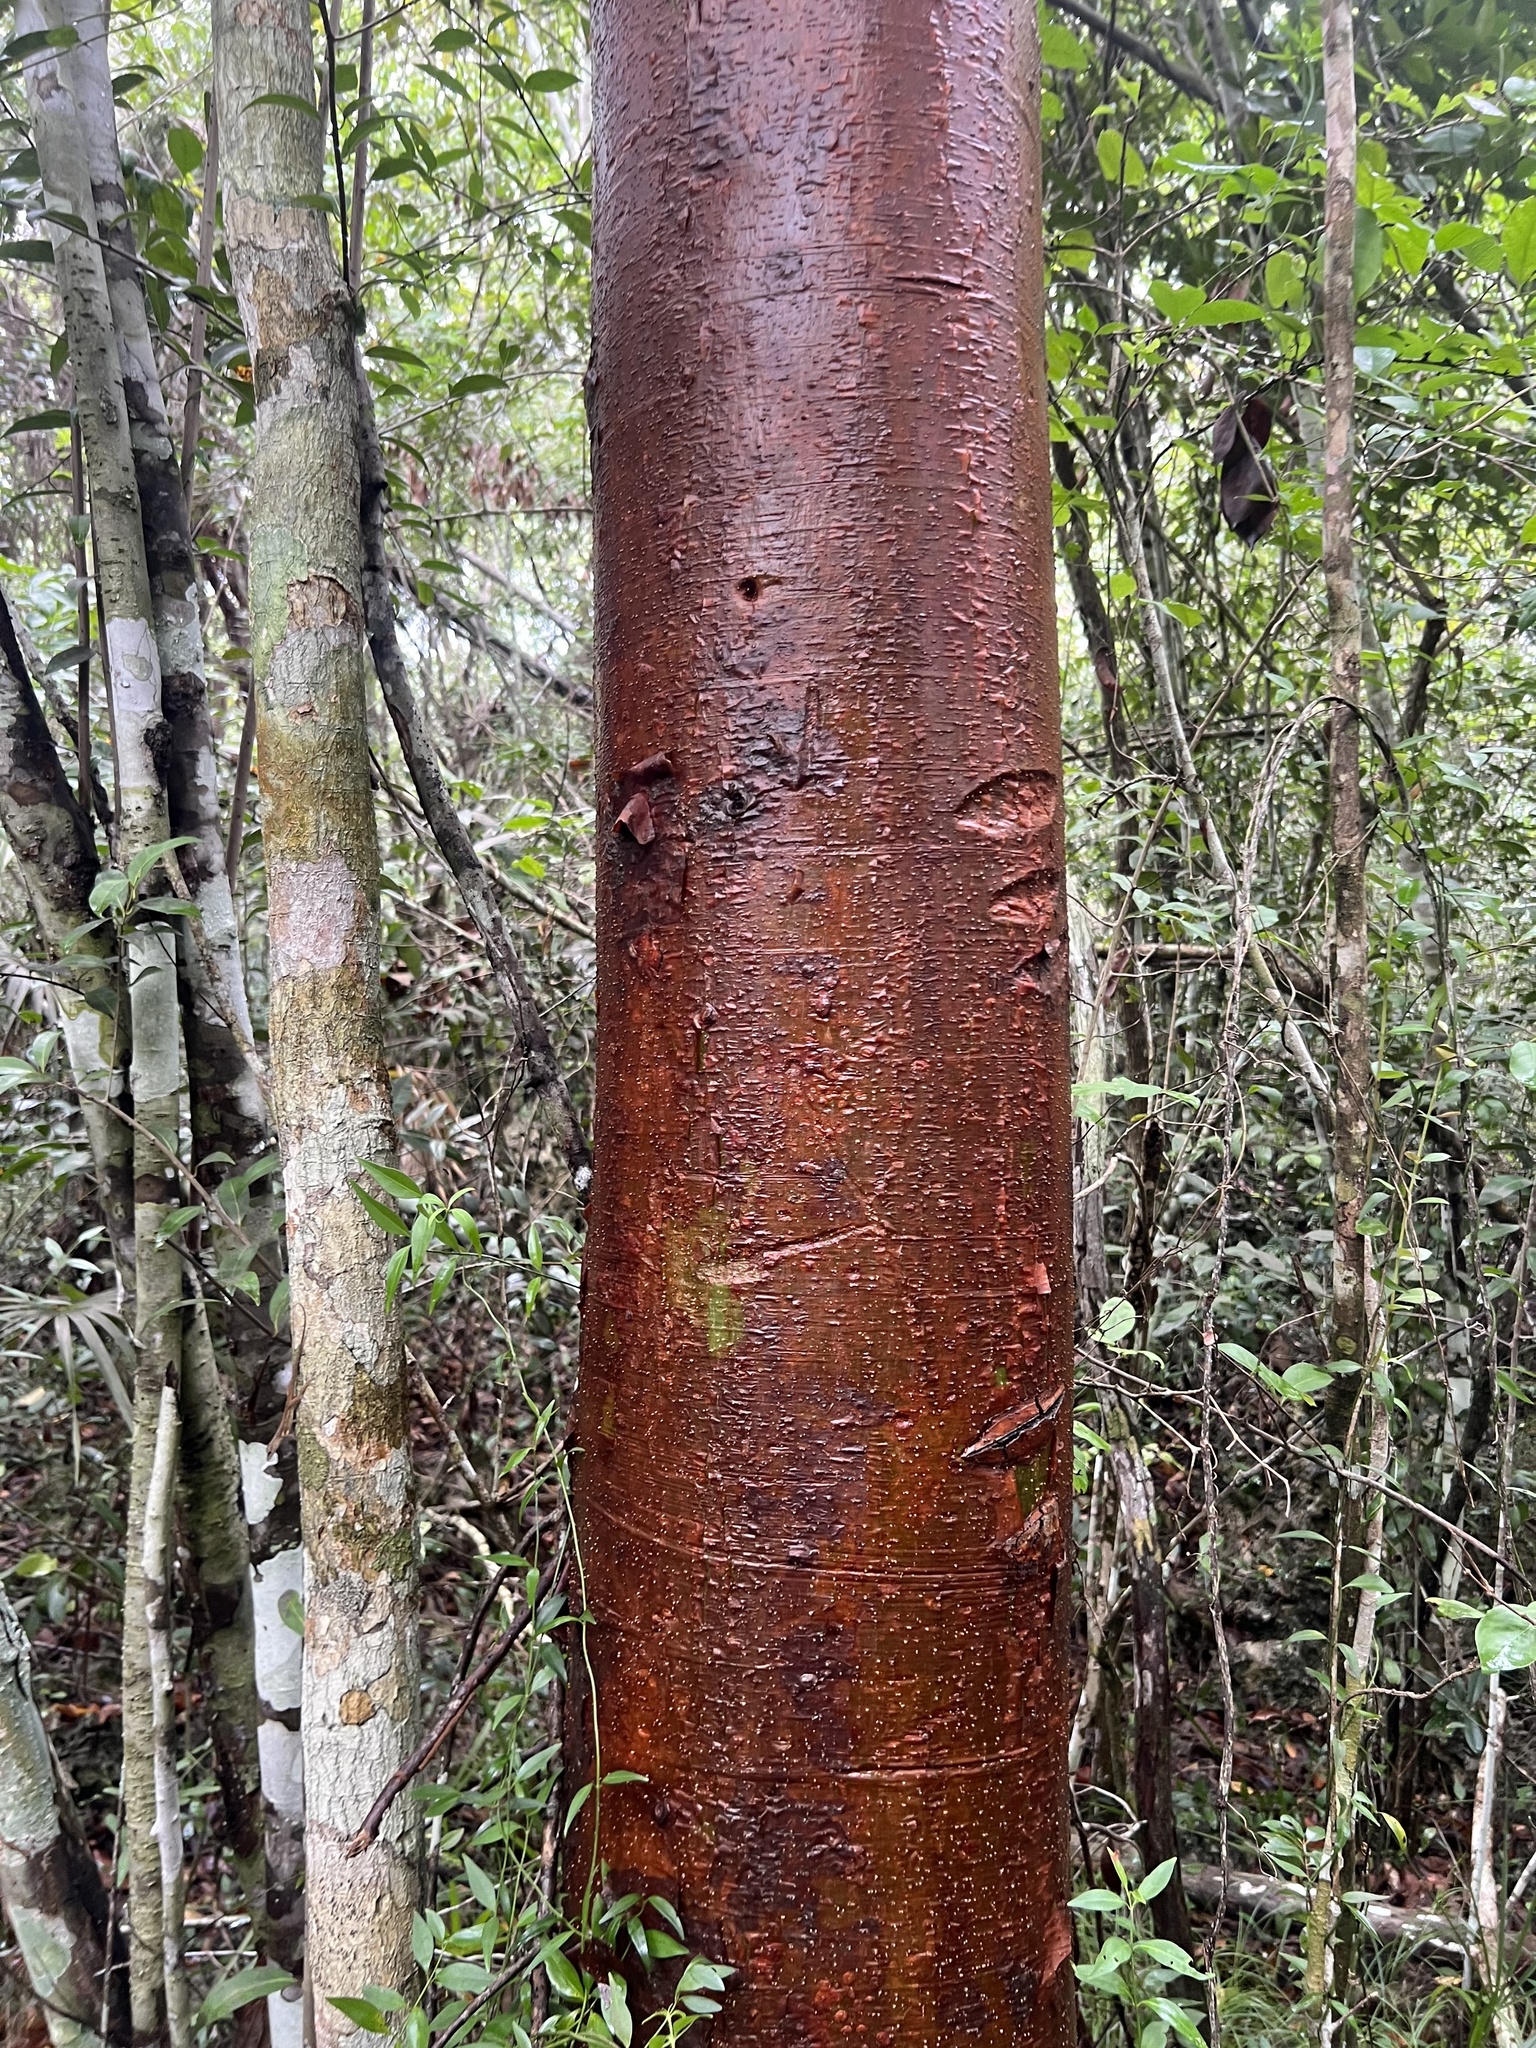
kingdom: Plantae
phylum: Tracheophyta
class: Magnoliopsida
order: Sapindales
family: Burseraceae
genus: Bursera
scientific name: Bursera simaruba
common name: Turpentine tree
